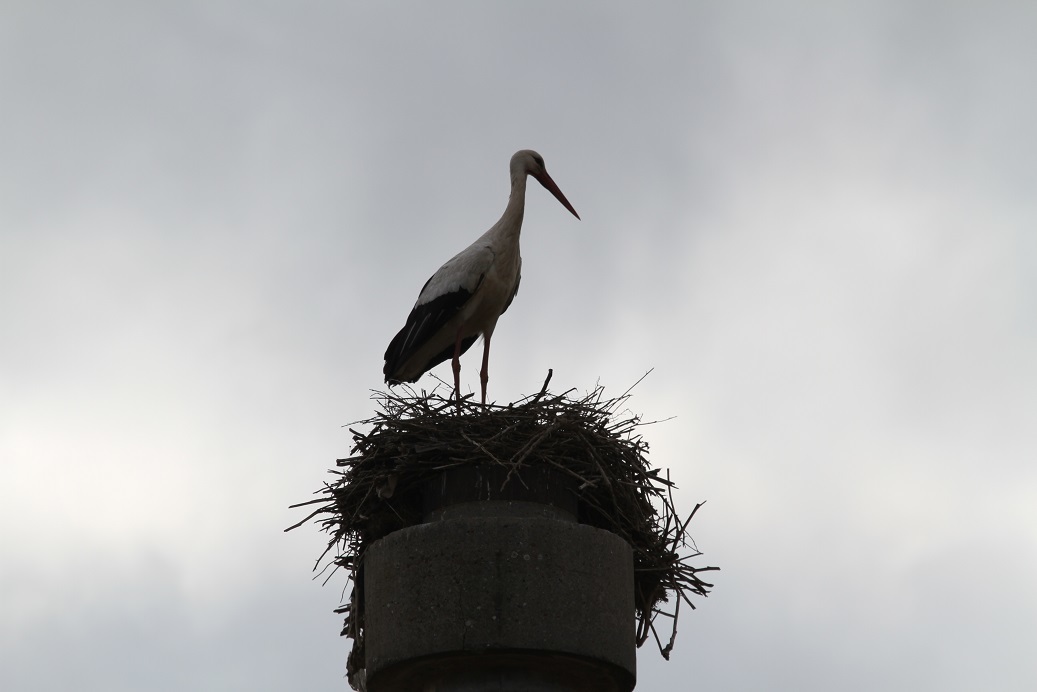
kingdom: Animalia
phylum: Chordata
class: Aves
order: Ciconiiformes
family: Ciconiidae
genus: Ciconia
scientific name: Ciconia ciconia
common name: White stork
